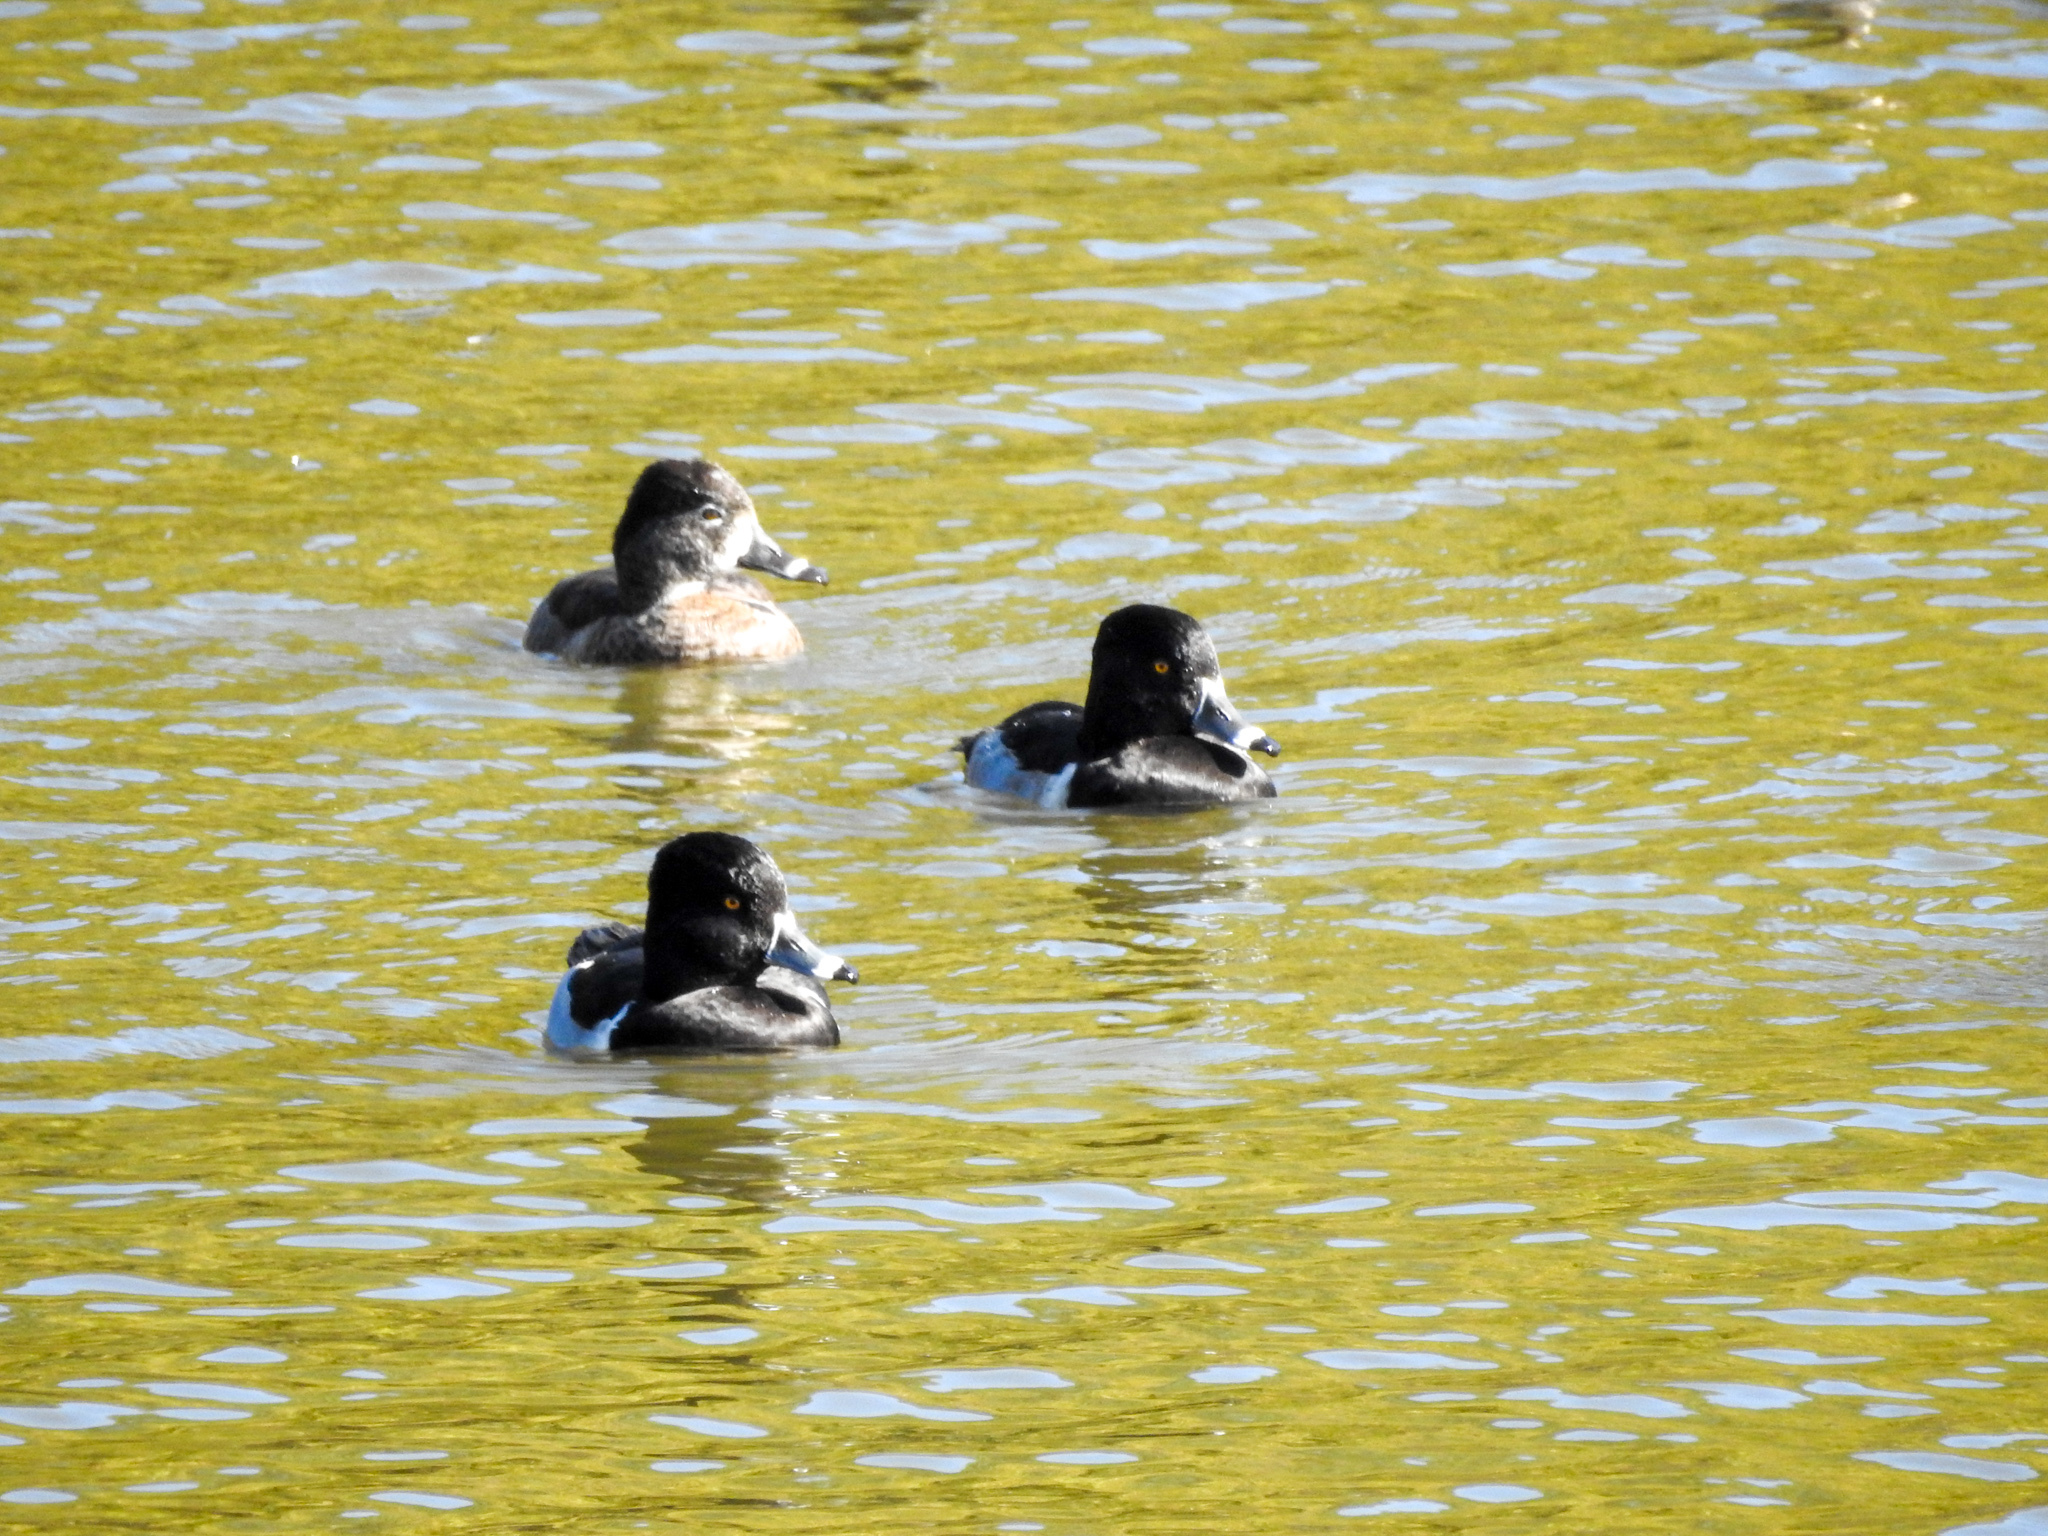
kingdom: Animalia
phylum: Chordata
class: Aves
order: Anseriformes
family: Anatidae
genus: Aythya
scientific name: Aythya collaris
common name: Ring-necked duck
